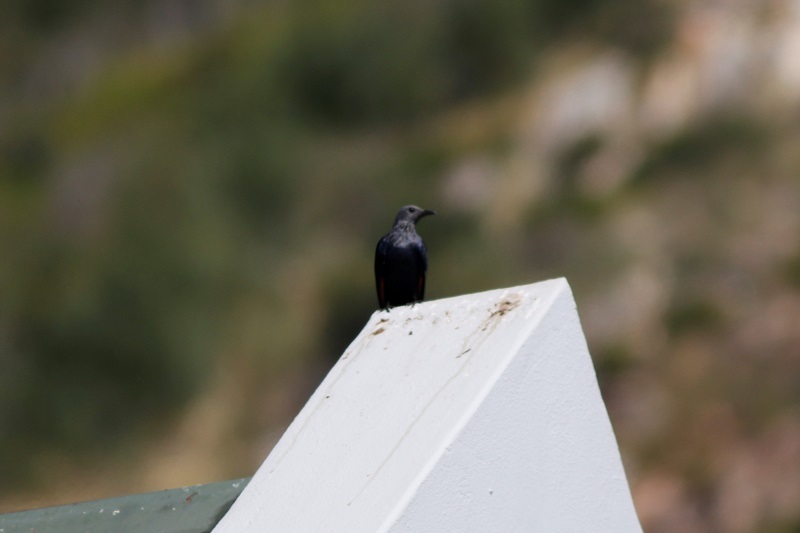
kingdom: Animalia
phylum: Chordata
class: Aves
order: Passeriformes
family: Sturnidae
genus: Onychognathus
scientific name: Onychognathus morio
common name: Red-winged starling
